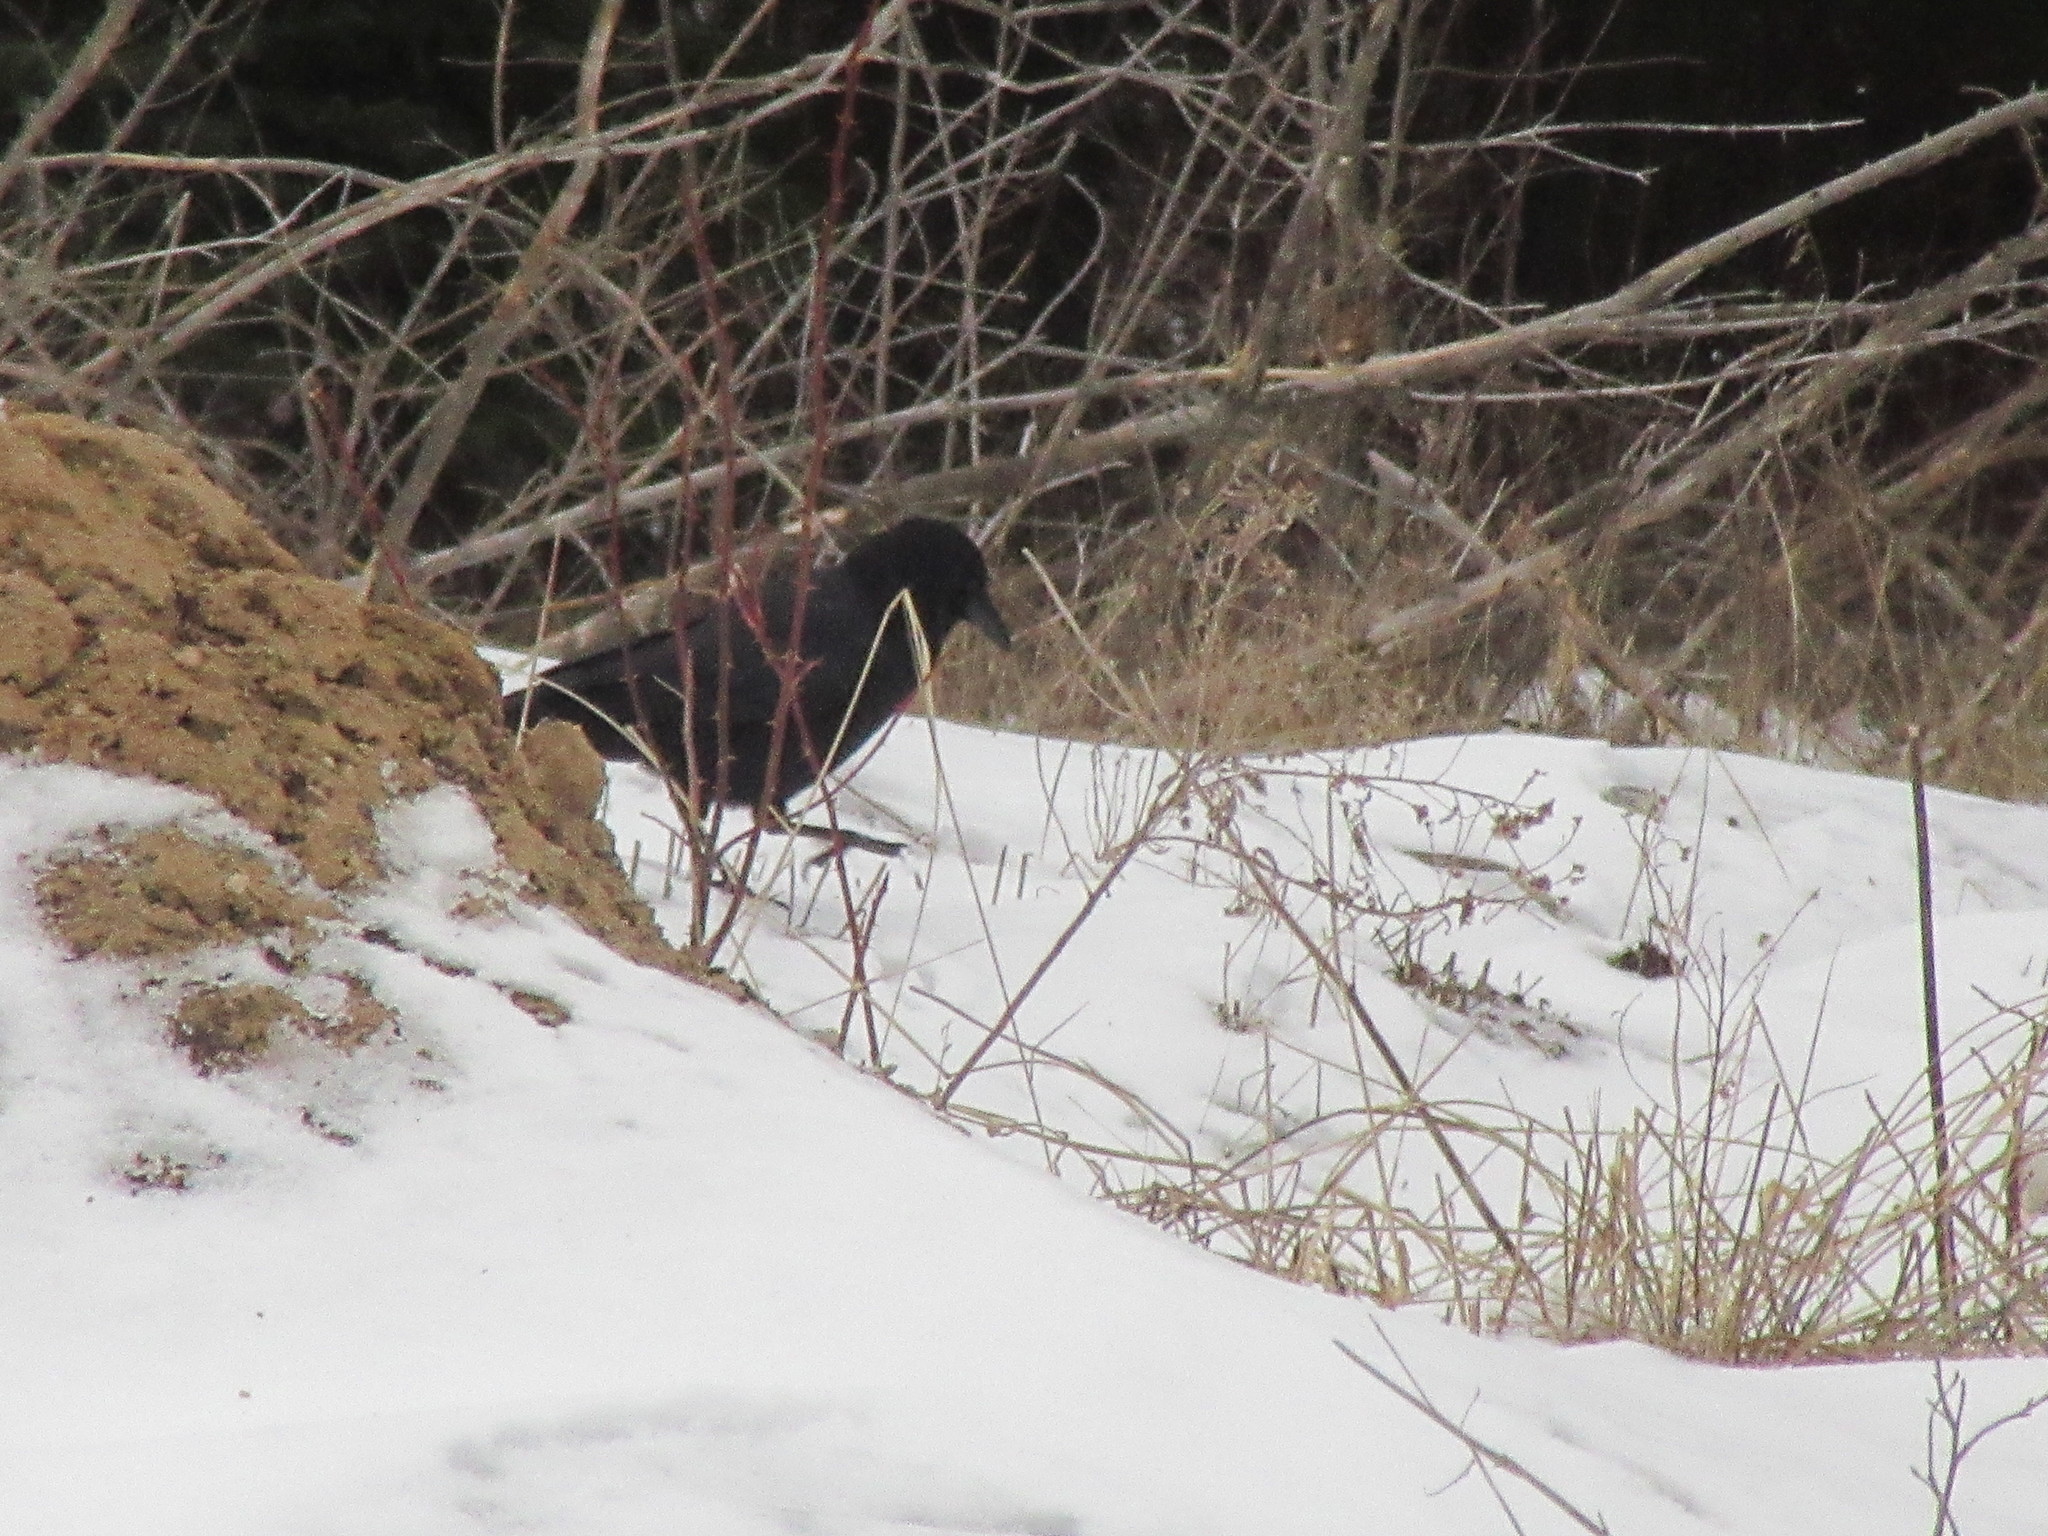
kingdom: Animalia
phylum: Chordata
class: Aves
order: Passeriformes
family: Corvidae
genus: Corvus
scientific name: Corvus brachyrhynchos
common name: American crow
